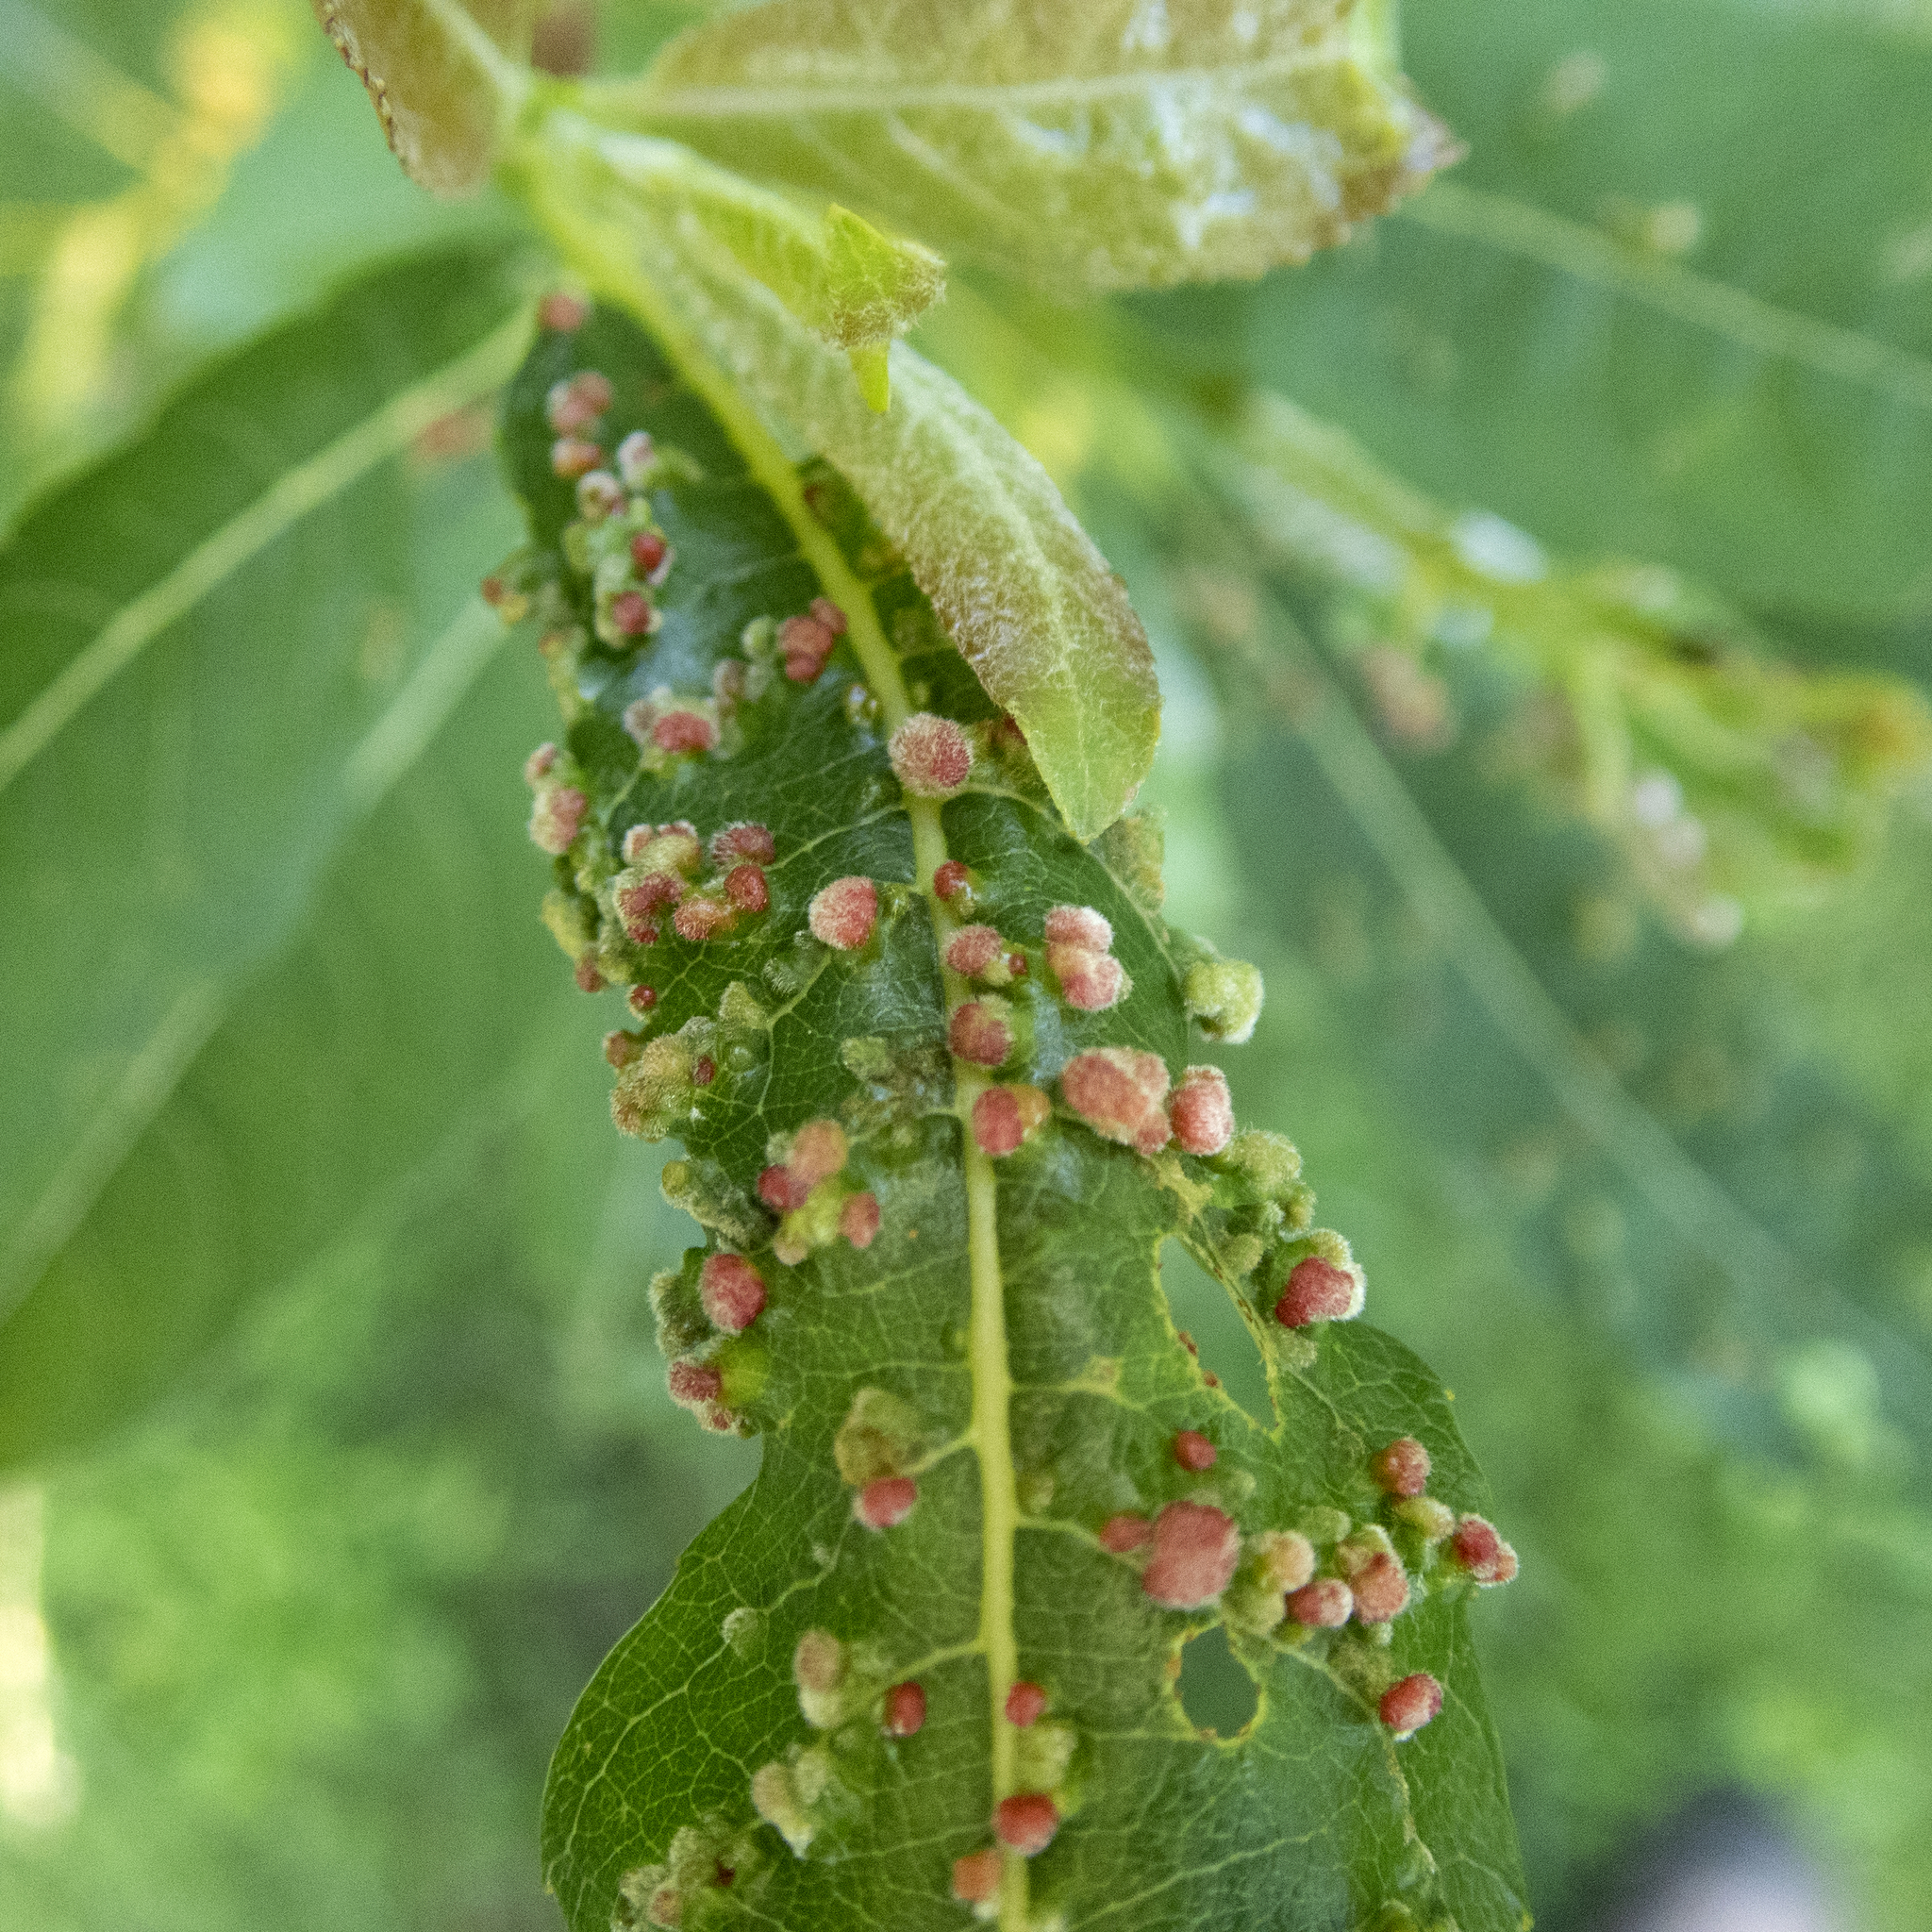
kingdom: Animalia
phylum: Arthropoda
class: Arachnida
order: Trombidiformes
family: Eriophyidae
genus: Aculus
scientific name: Aculus tetanothrix
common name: Willow bead gall mite
